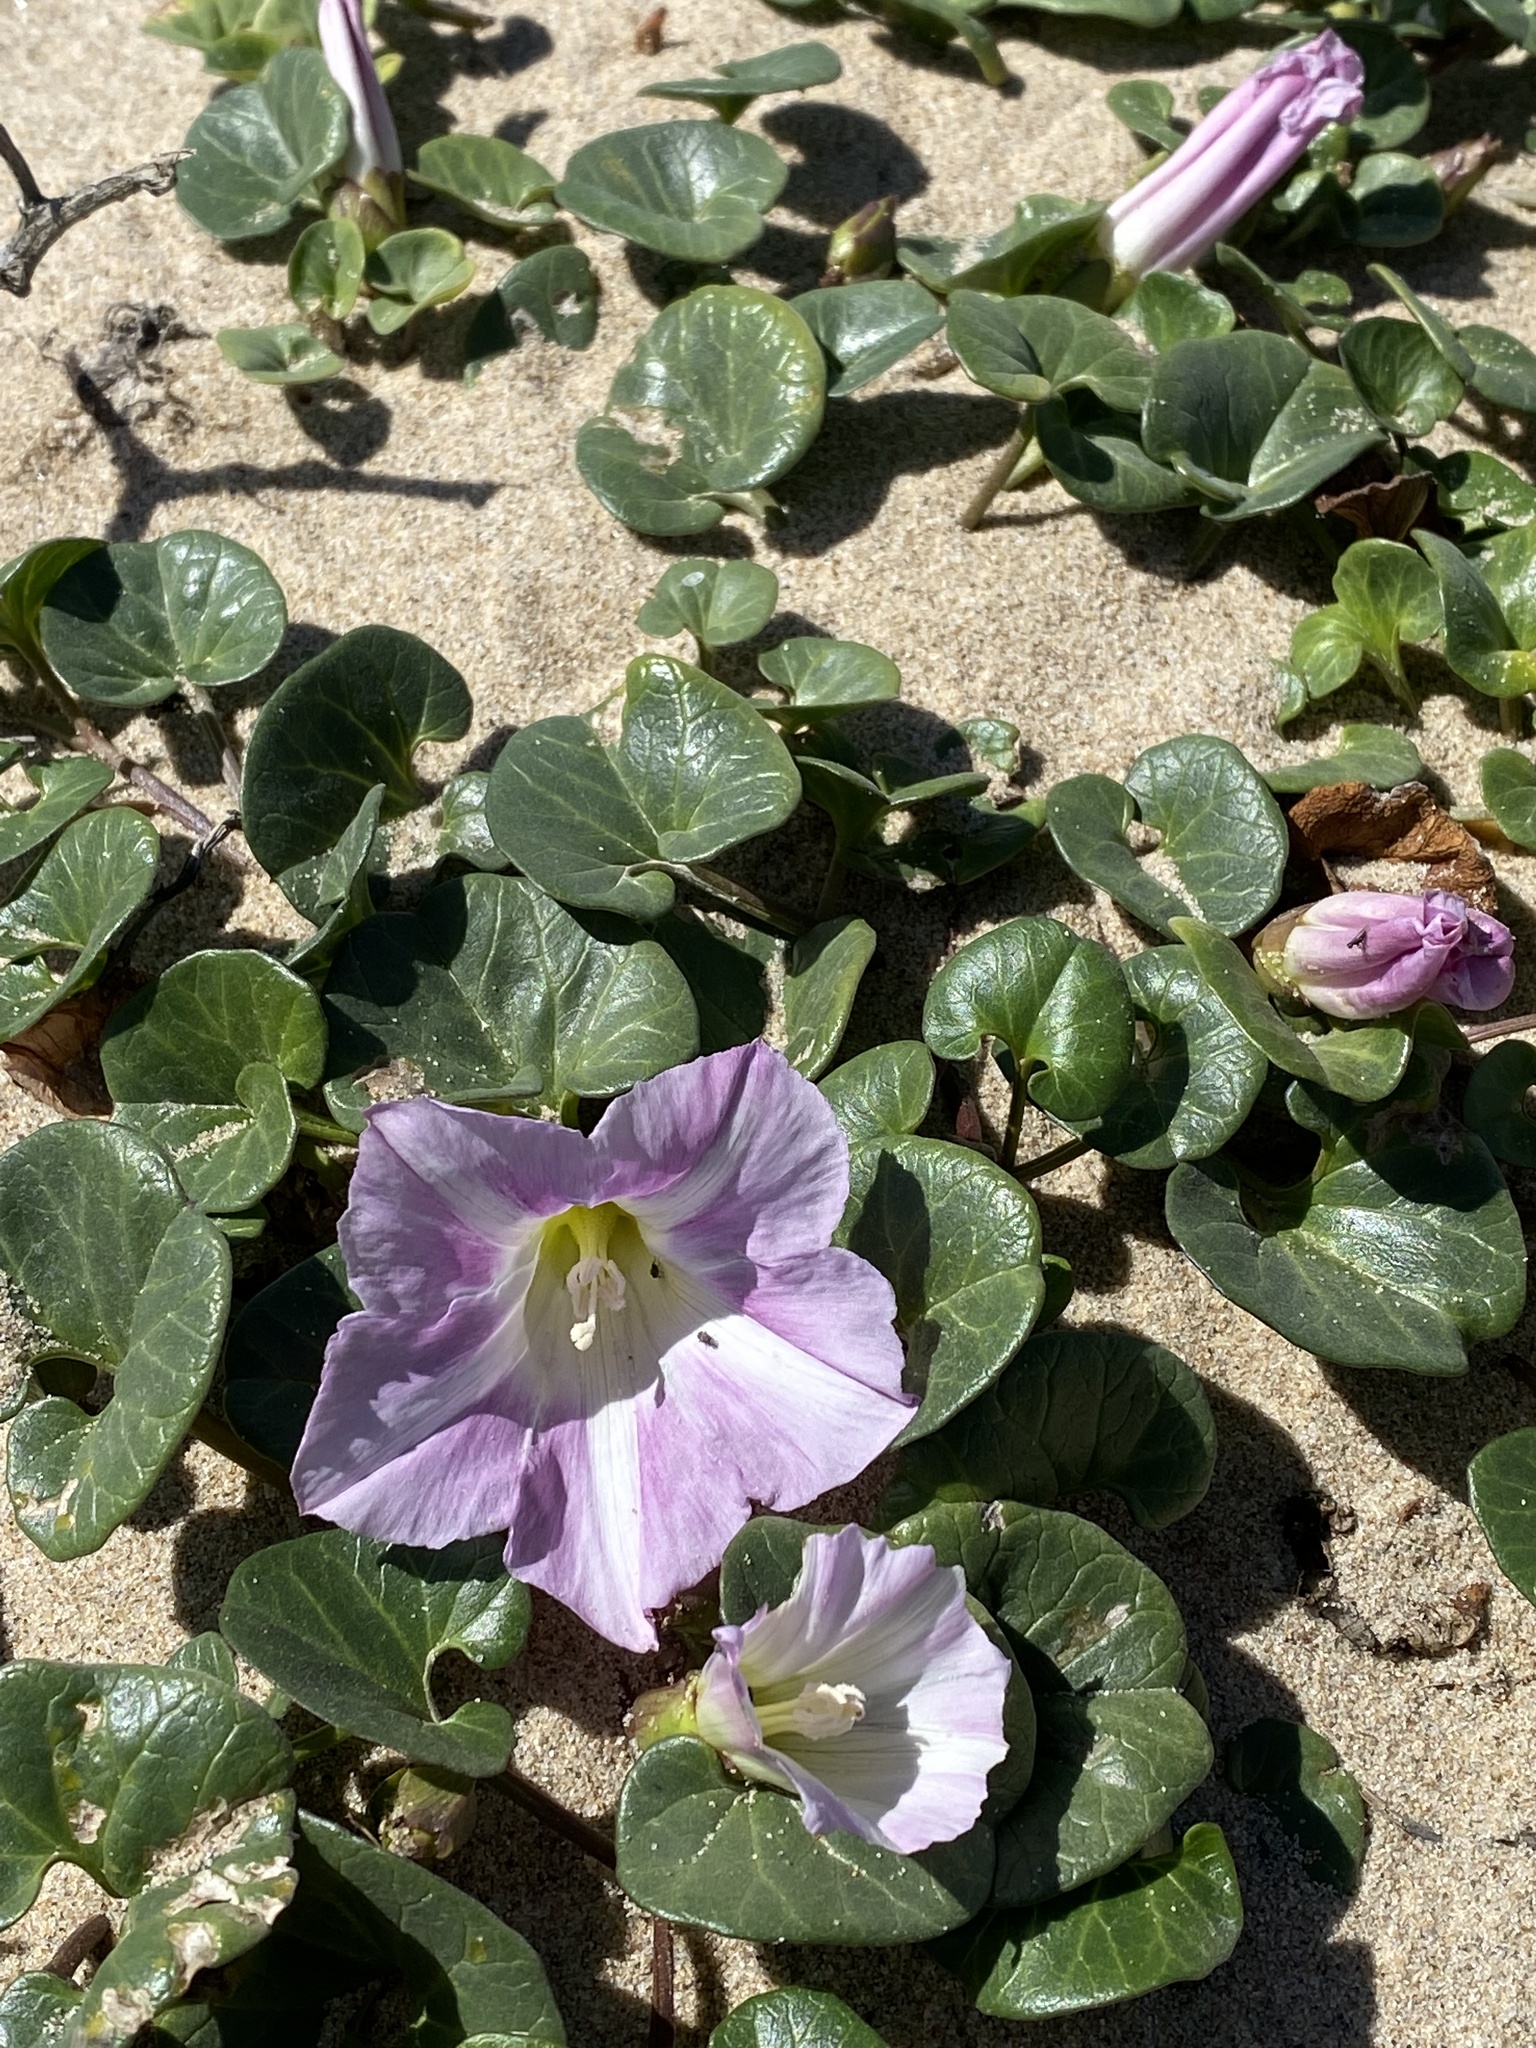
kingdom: Plantae
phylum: Tracheophyta
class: Magnoliopsida
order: Solanales
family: Convolvulaceae
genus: Calystegia
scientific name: Calystegia soldanella
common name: Sea bindweed
